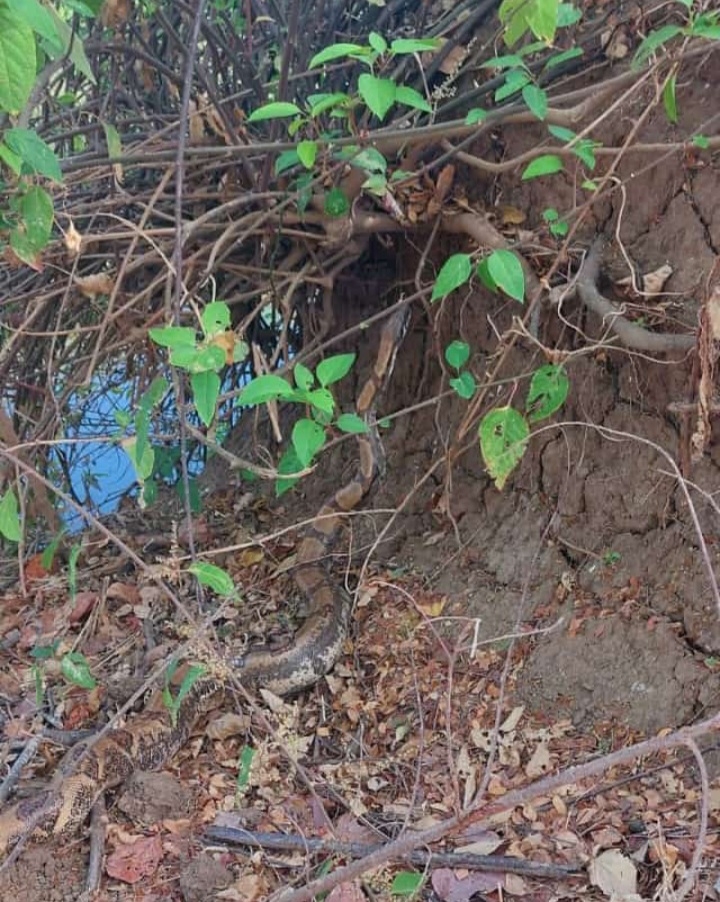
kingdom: Animalia
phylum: Chordata
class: Squamata
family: Boidae
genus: Boa
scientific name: Boa imperator
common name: Central american boa
